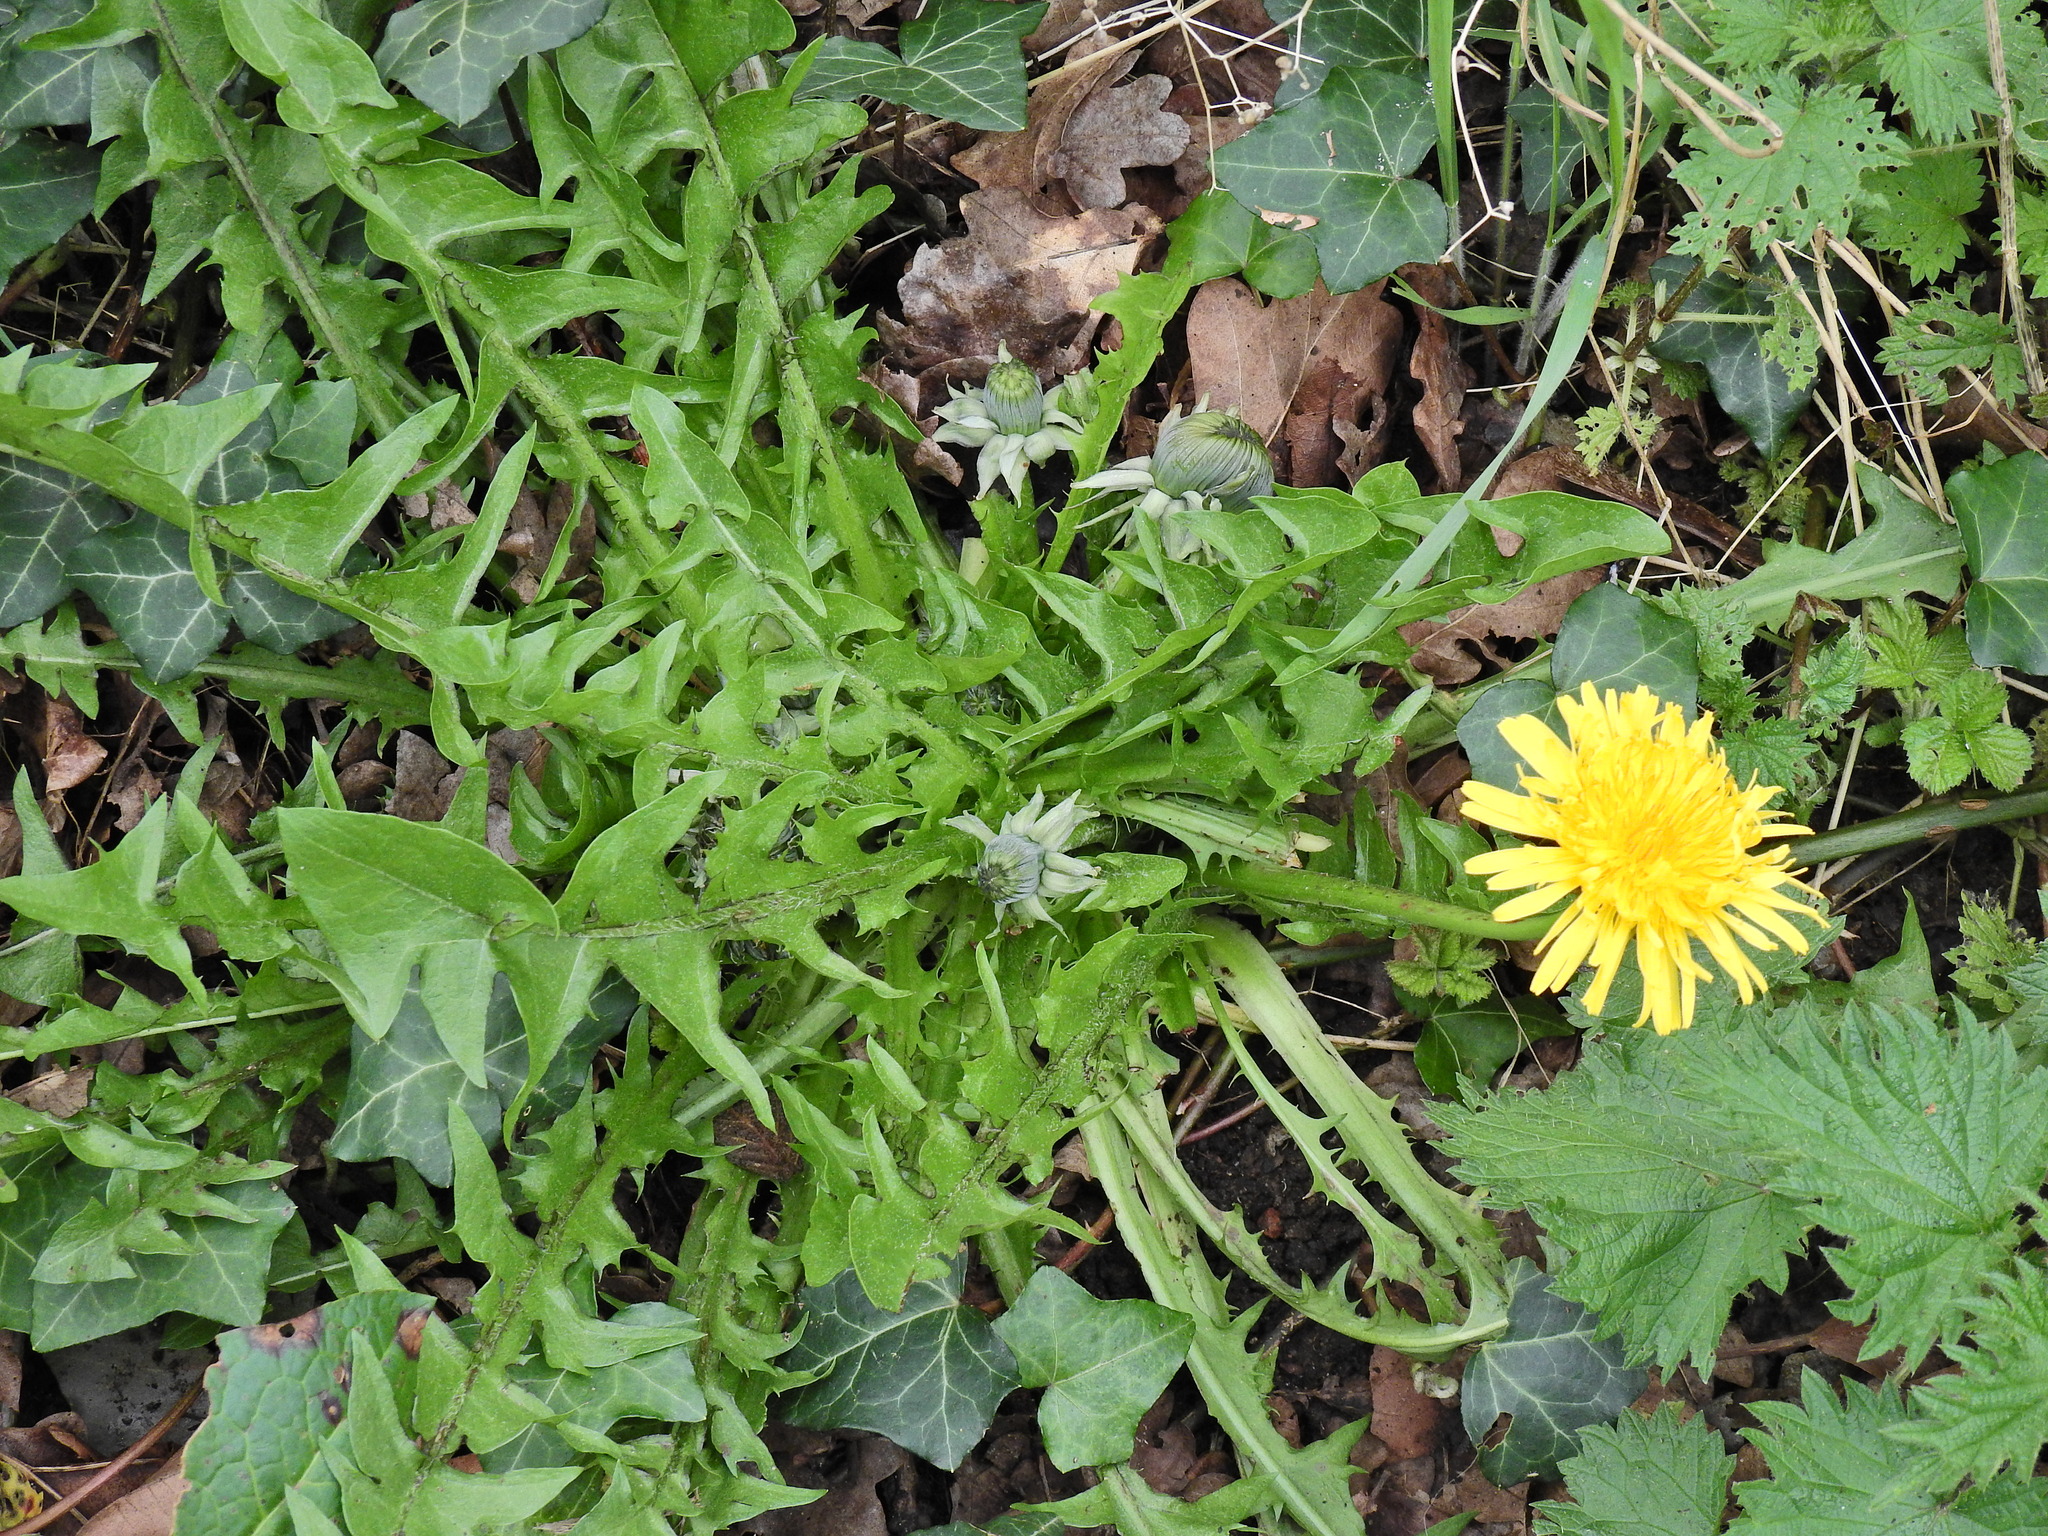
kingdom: Plantae
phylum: Tracheophyta
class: Magnoliopsida
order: Asterales
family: Asteraceae
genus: Taraxacum
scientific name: Taraxacum officinale
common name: Common dandelion
